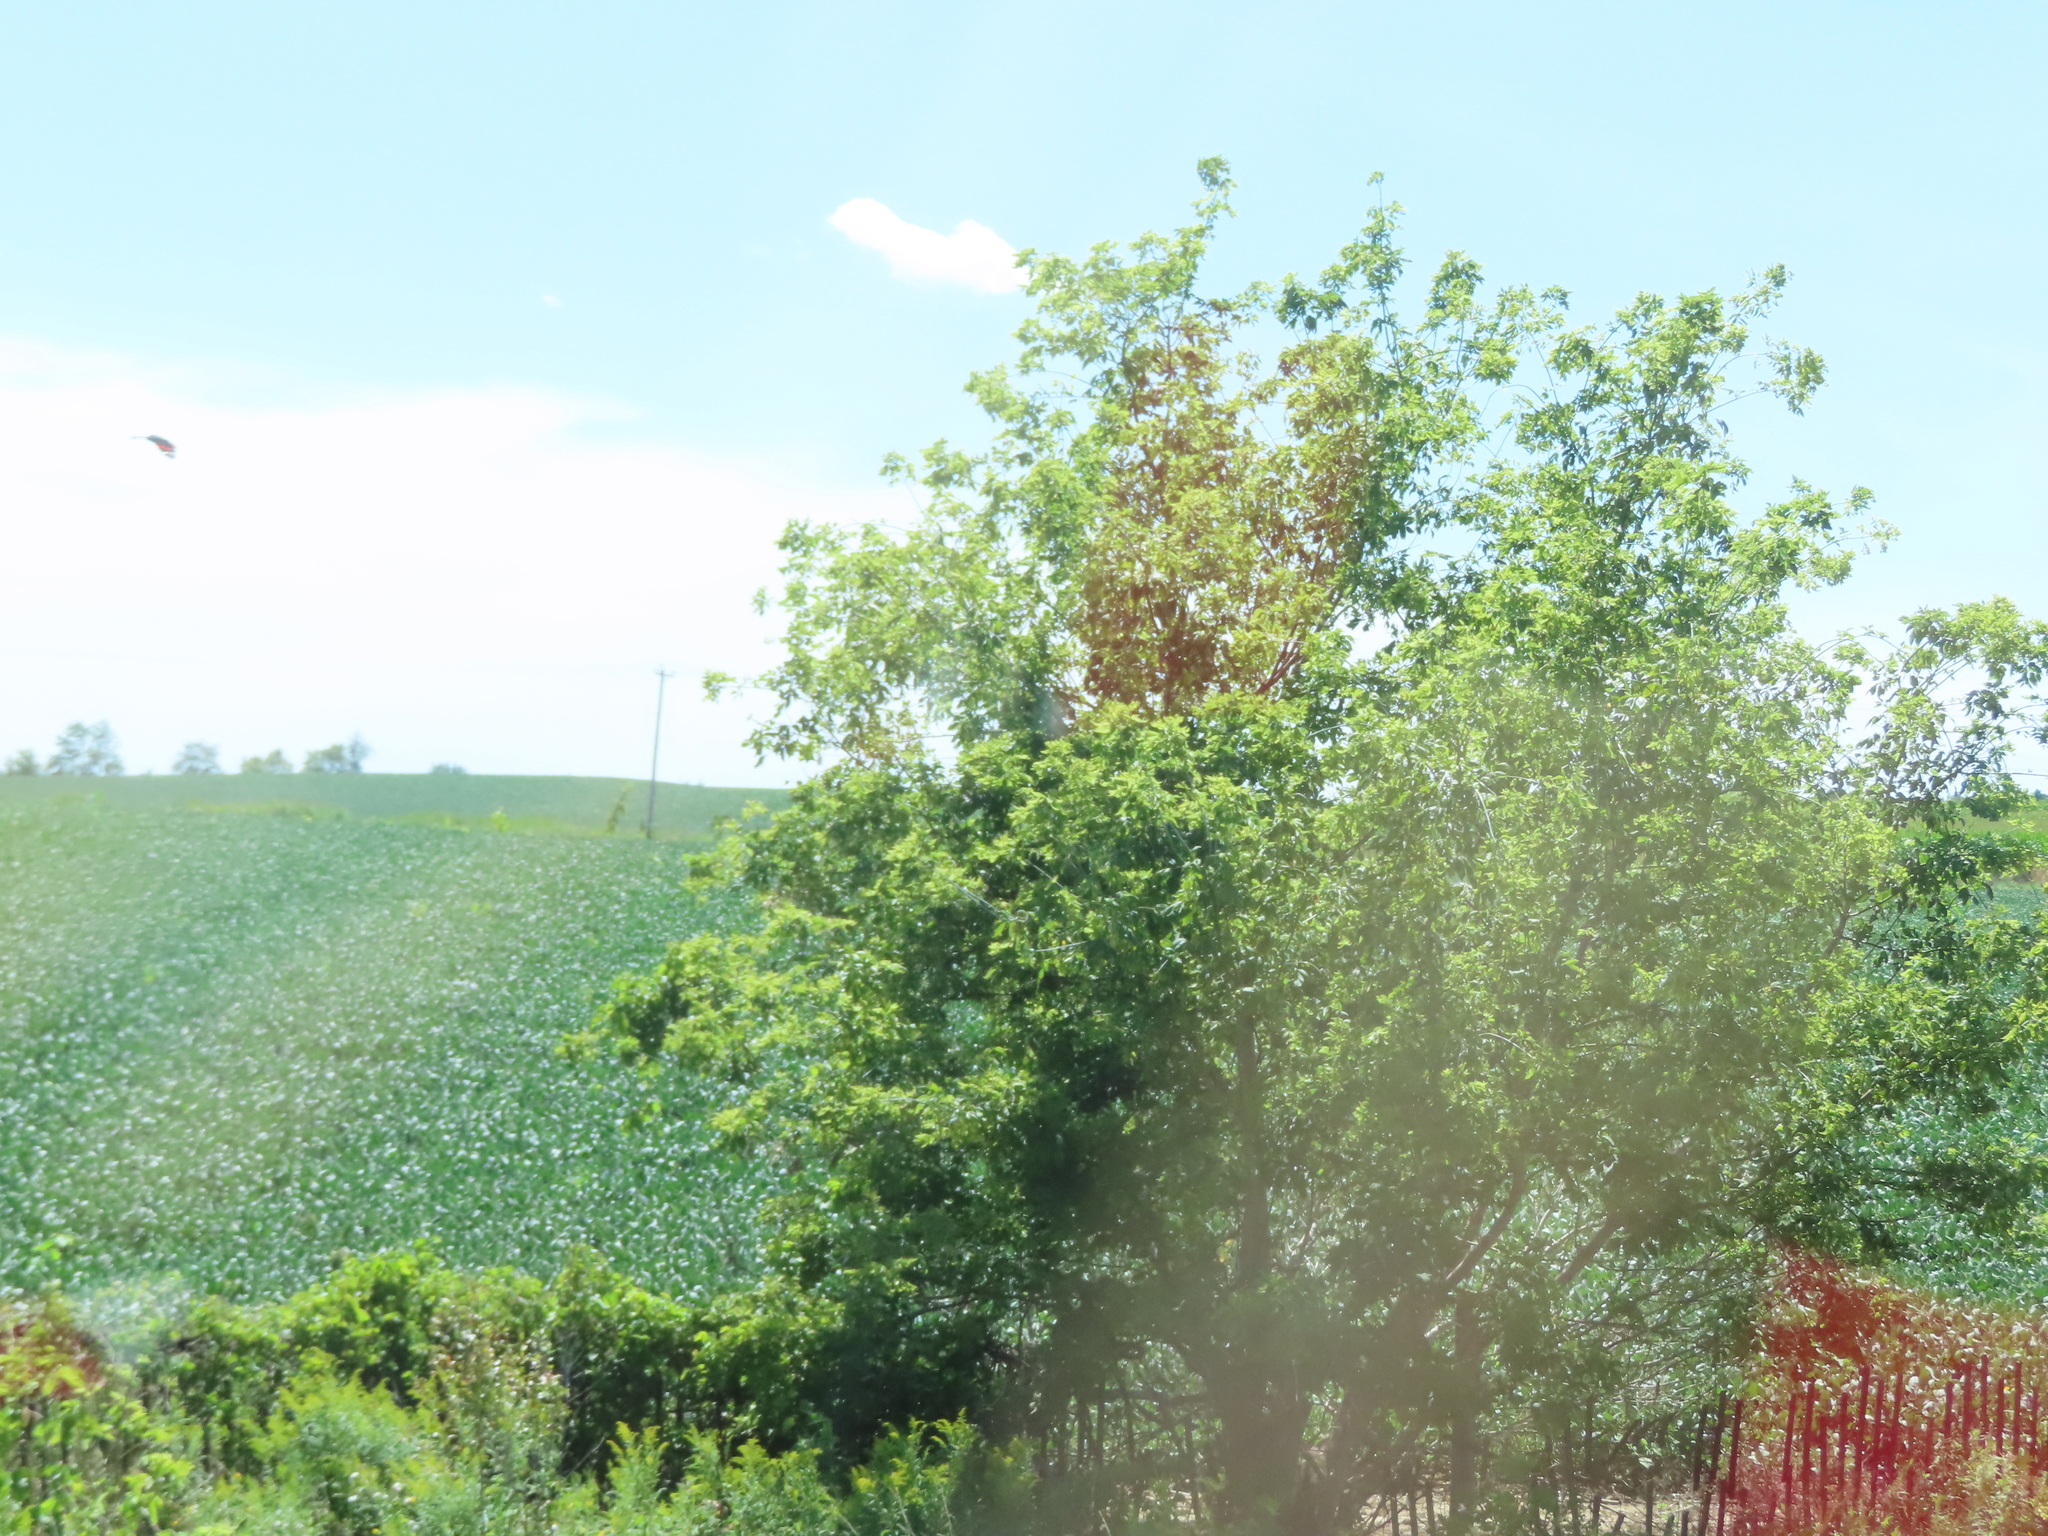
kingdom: Plantae
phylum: Tracheophyta
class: Magnoliopsida
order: Sapindales
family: Sapindaceae
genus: Acer
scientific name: Acer negundo
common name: Ashleaf maple
